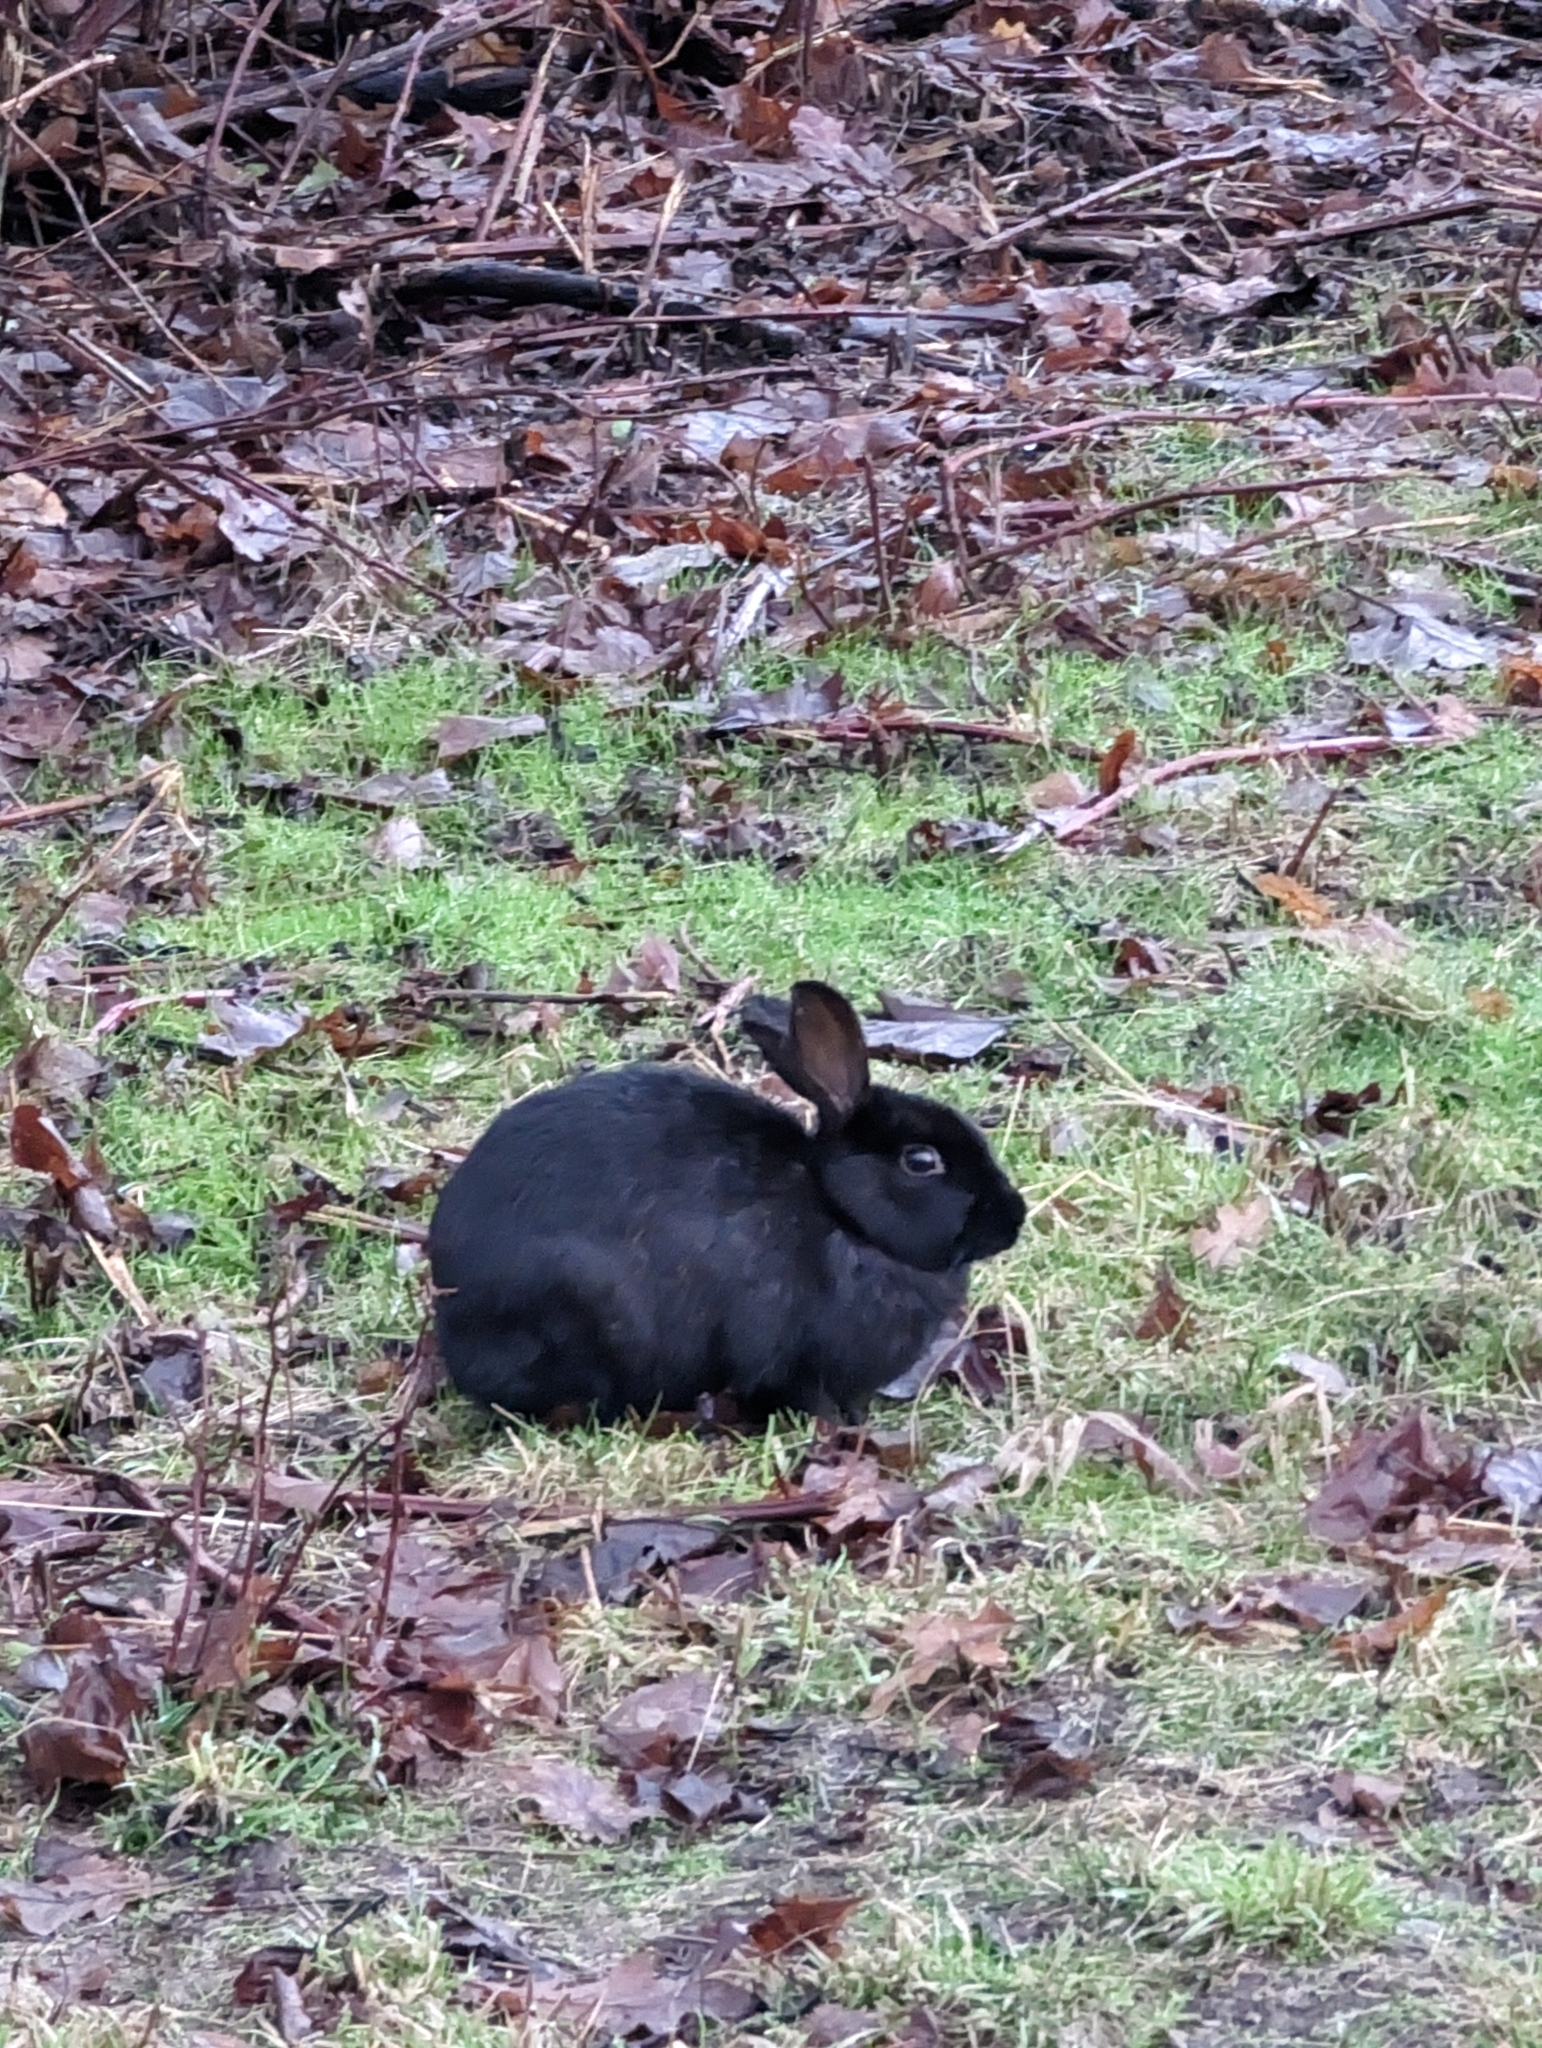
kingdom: Animalia
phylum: Chordata
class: Mammalia
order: Lagomorpha
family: Leporidae
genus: Oryctolagus
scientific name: Oryctolagus cuniculus
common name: European rabbit
